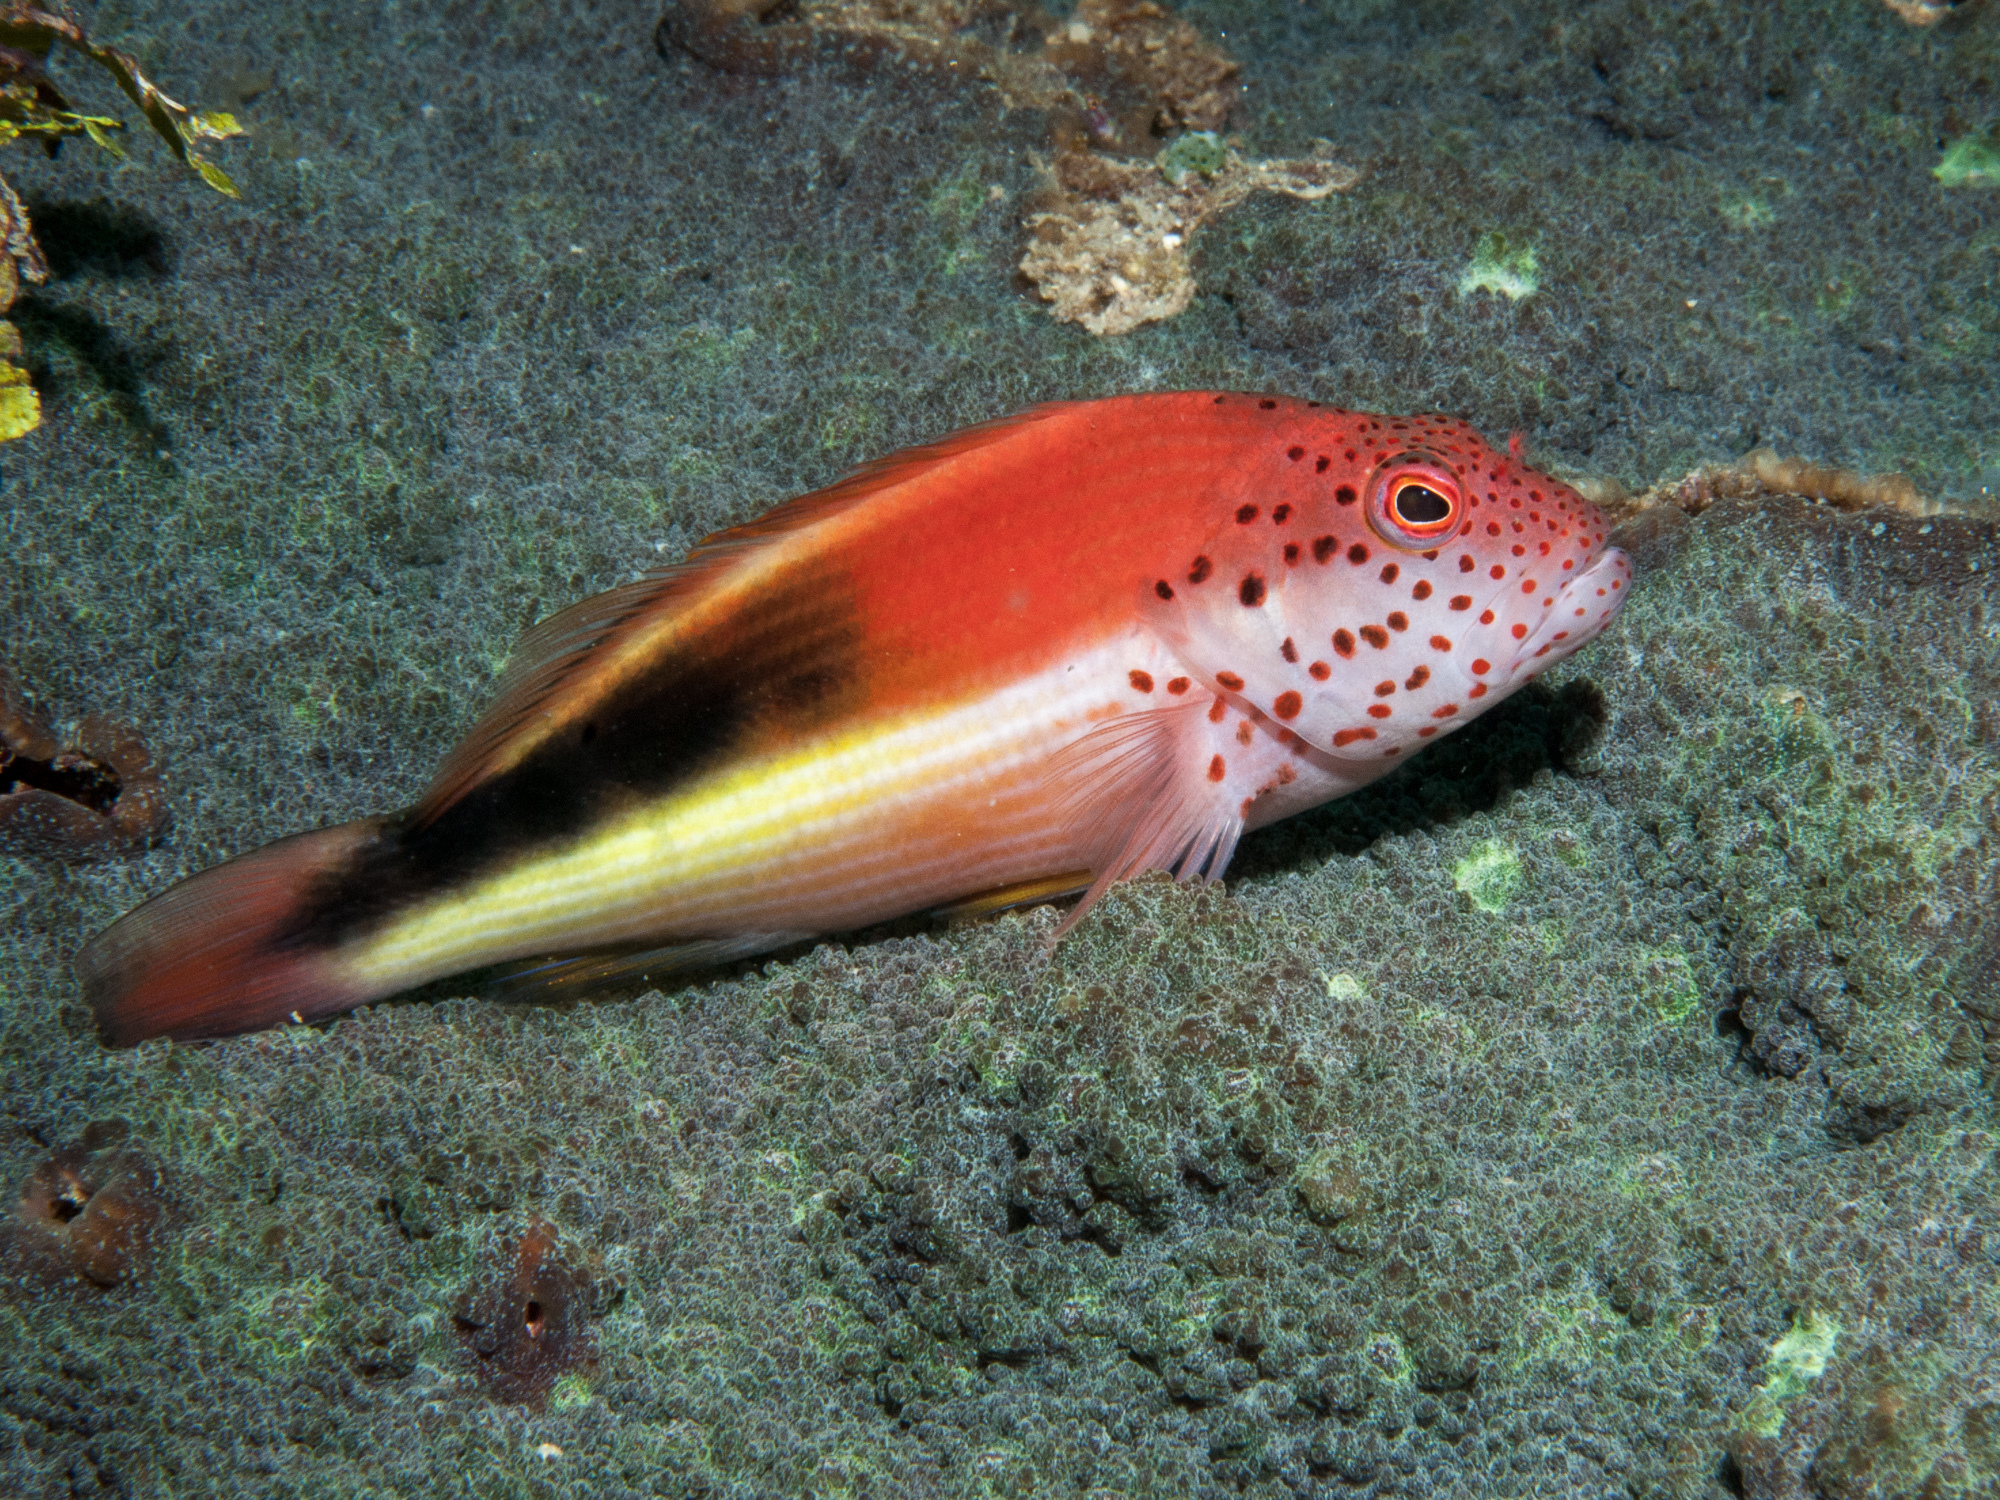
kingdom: Animalia
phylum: Chordata
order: Perciformes
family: Cirrhitidae
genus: Paracirrhites
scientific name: Paracirrhites forsteri
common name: Freckled hawkfish
